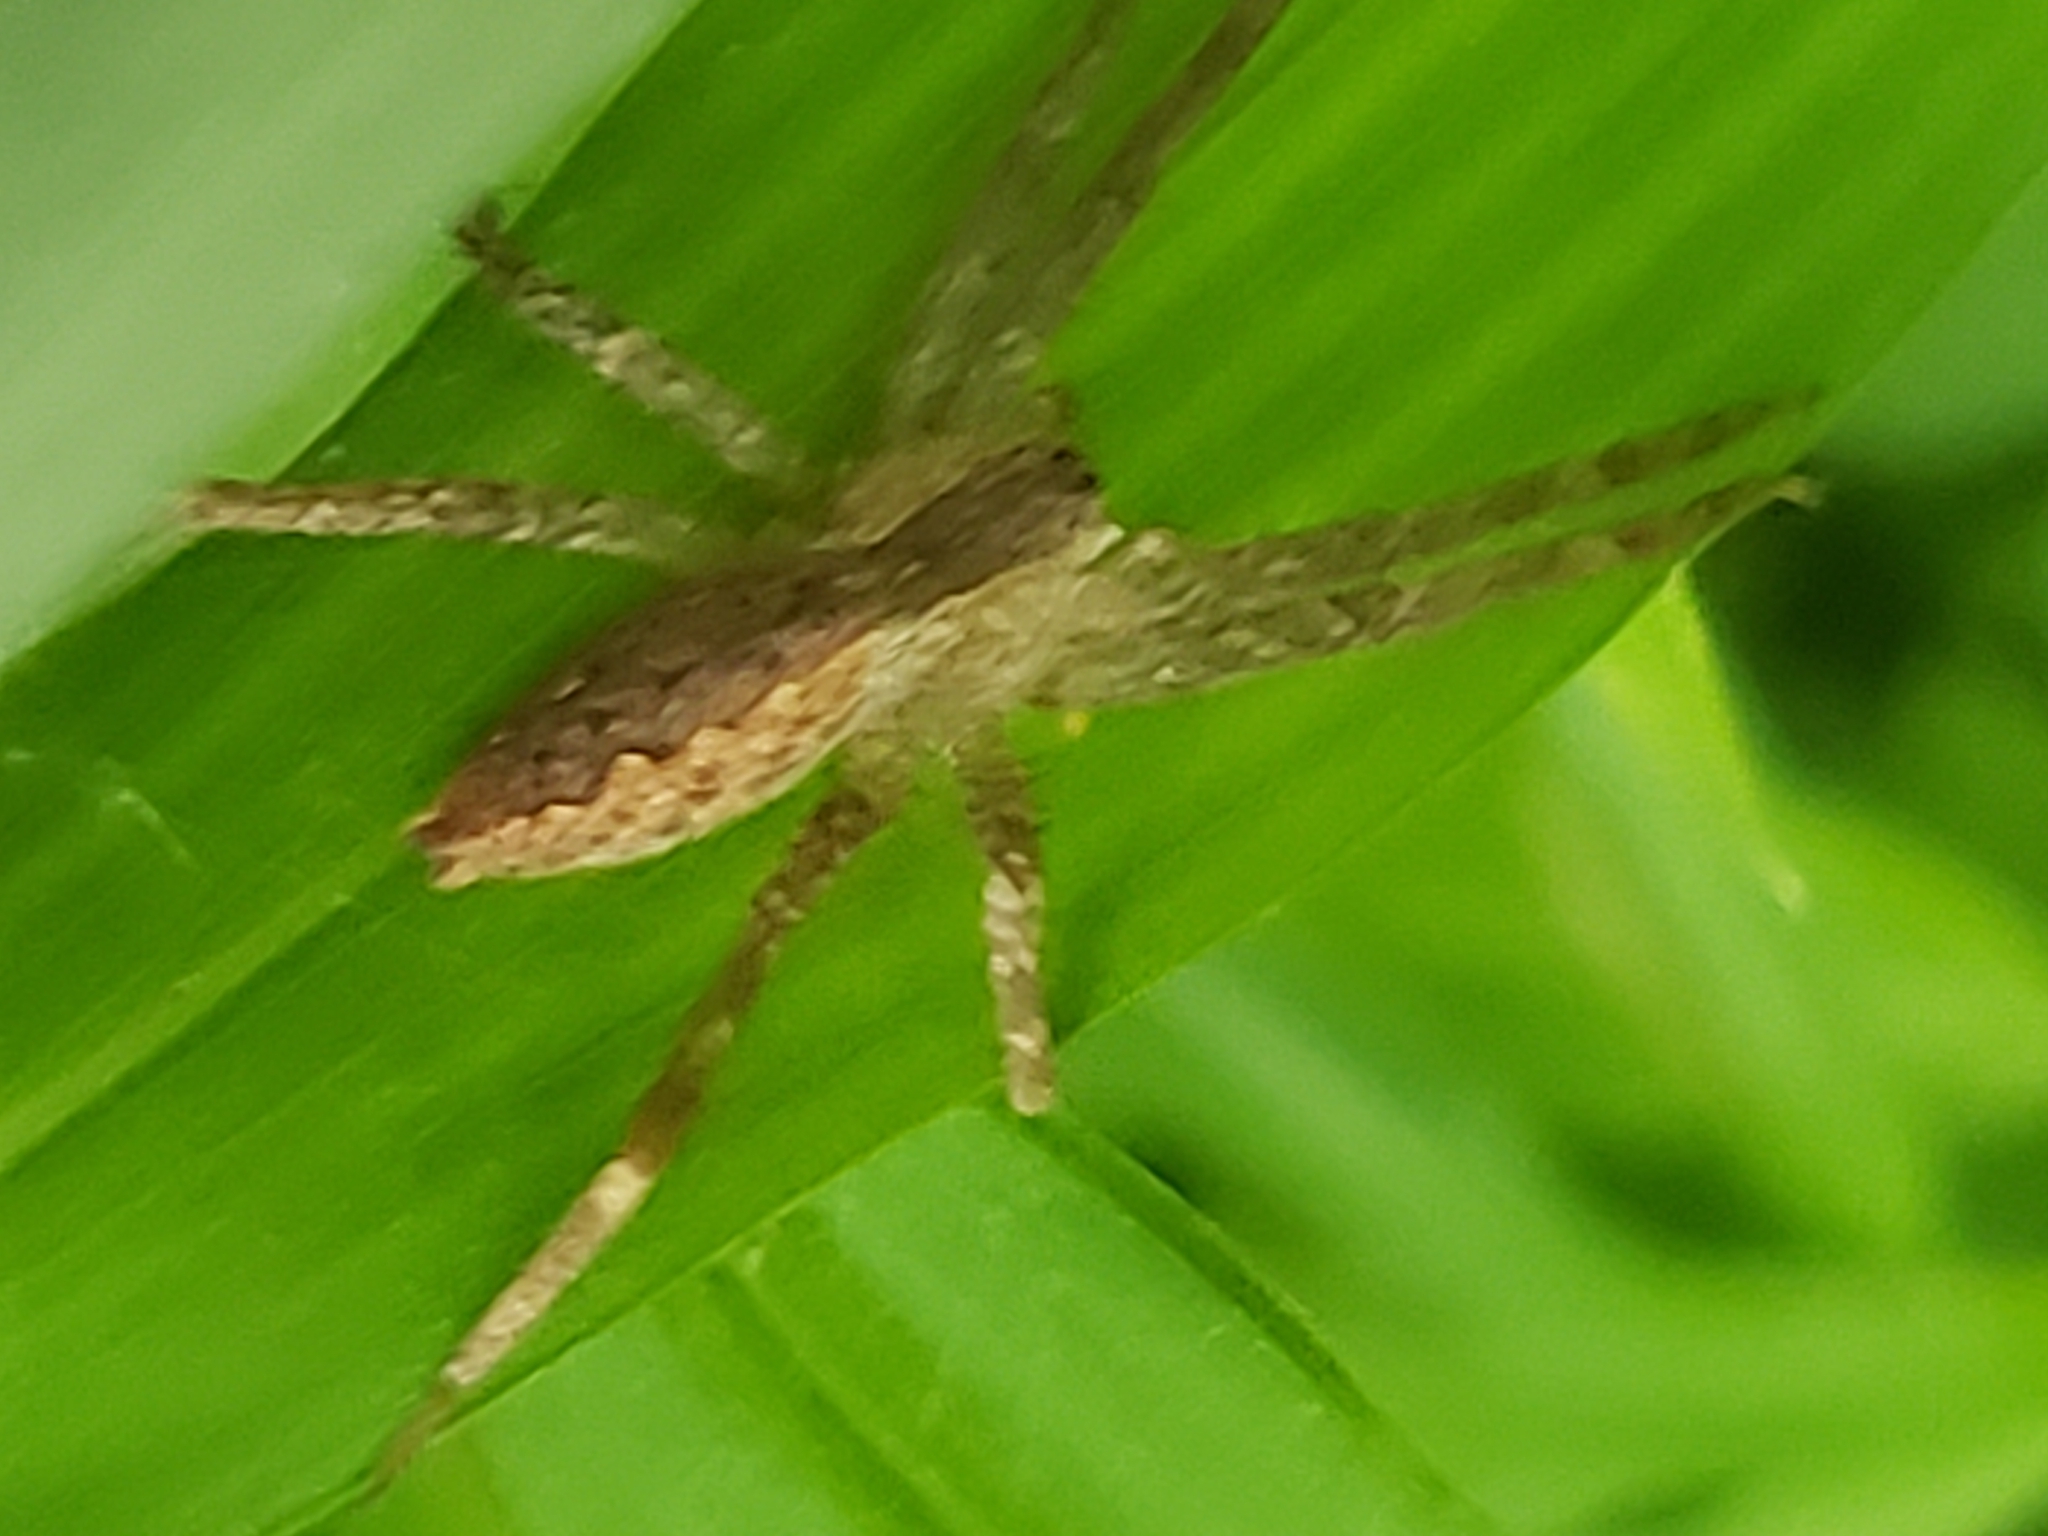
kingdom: Animalia
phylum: Arthropoda
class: Arachnida
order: Araneae
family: Pisauridae
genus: Pisaurina
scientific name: Pisaurina mira
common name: American nursery web spider
